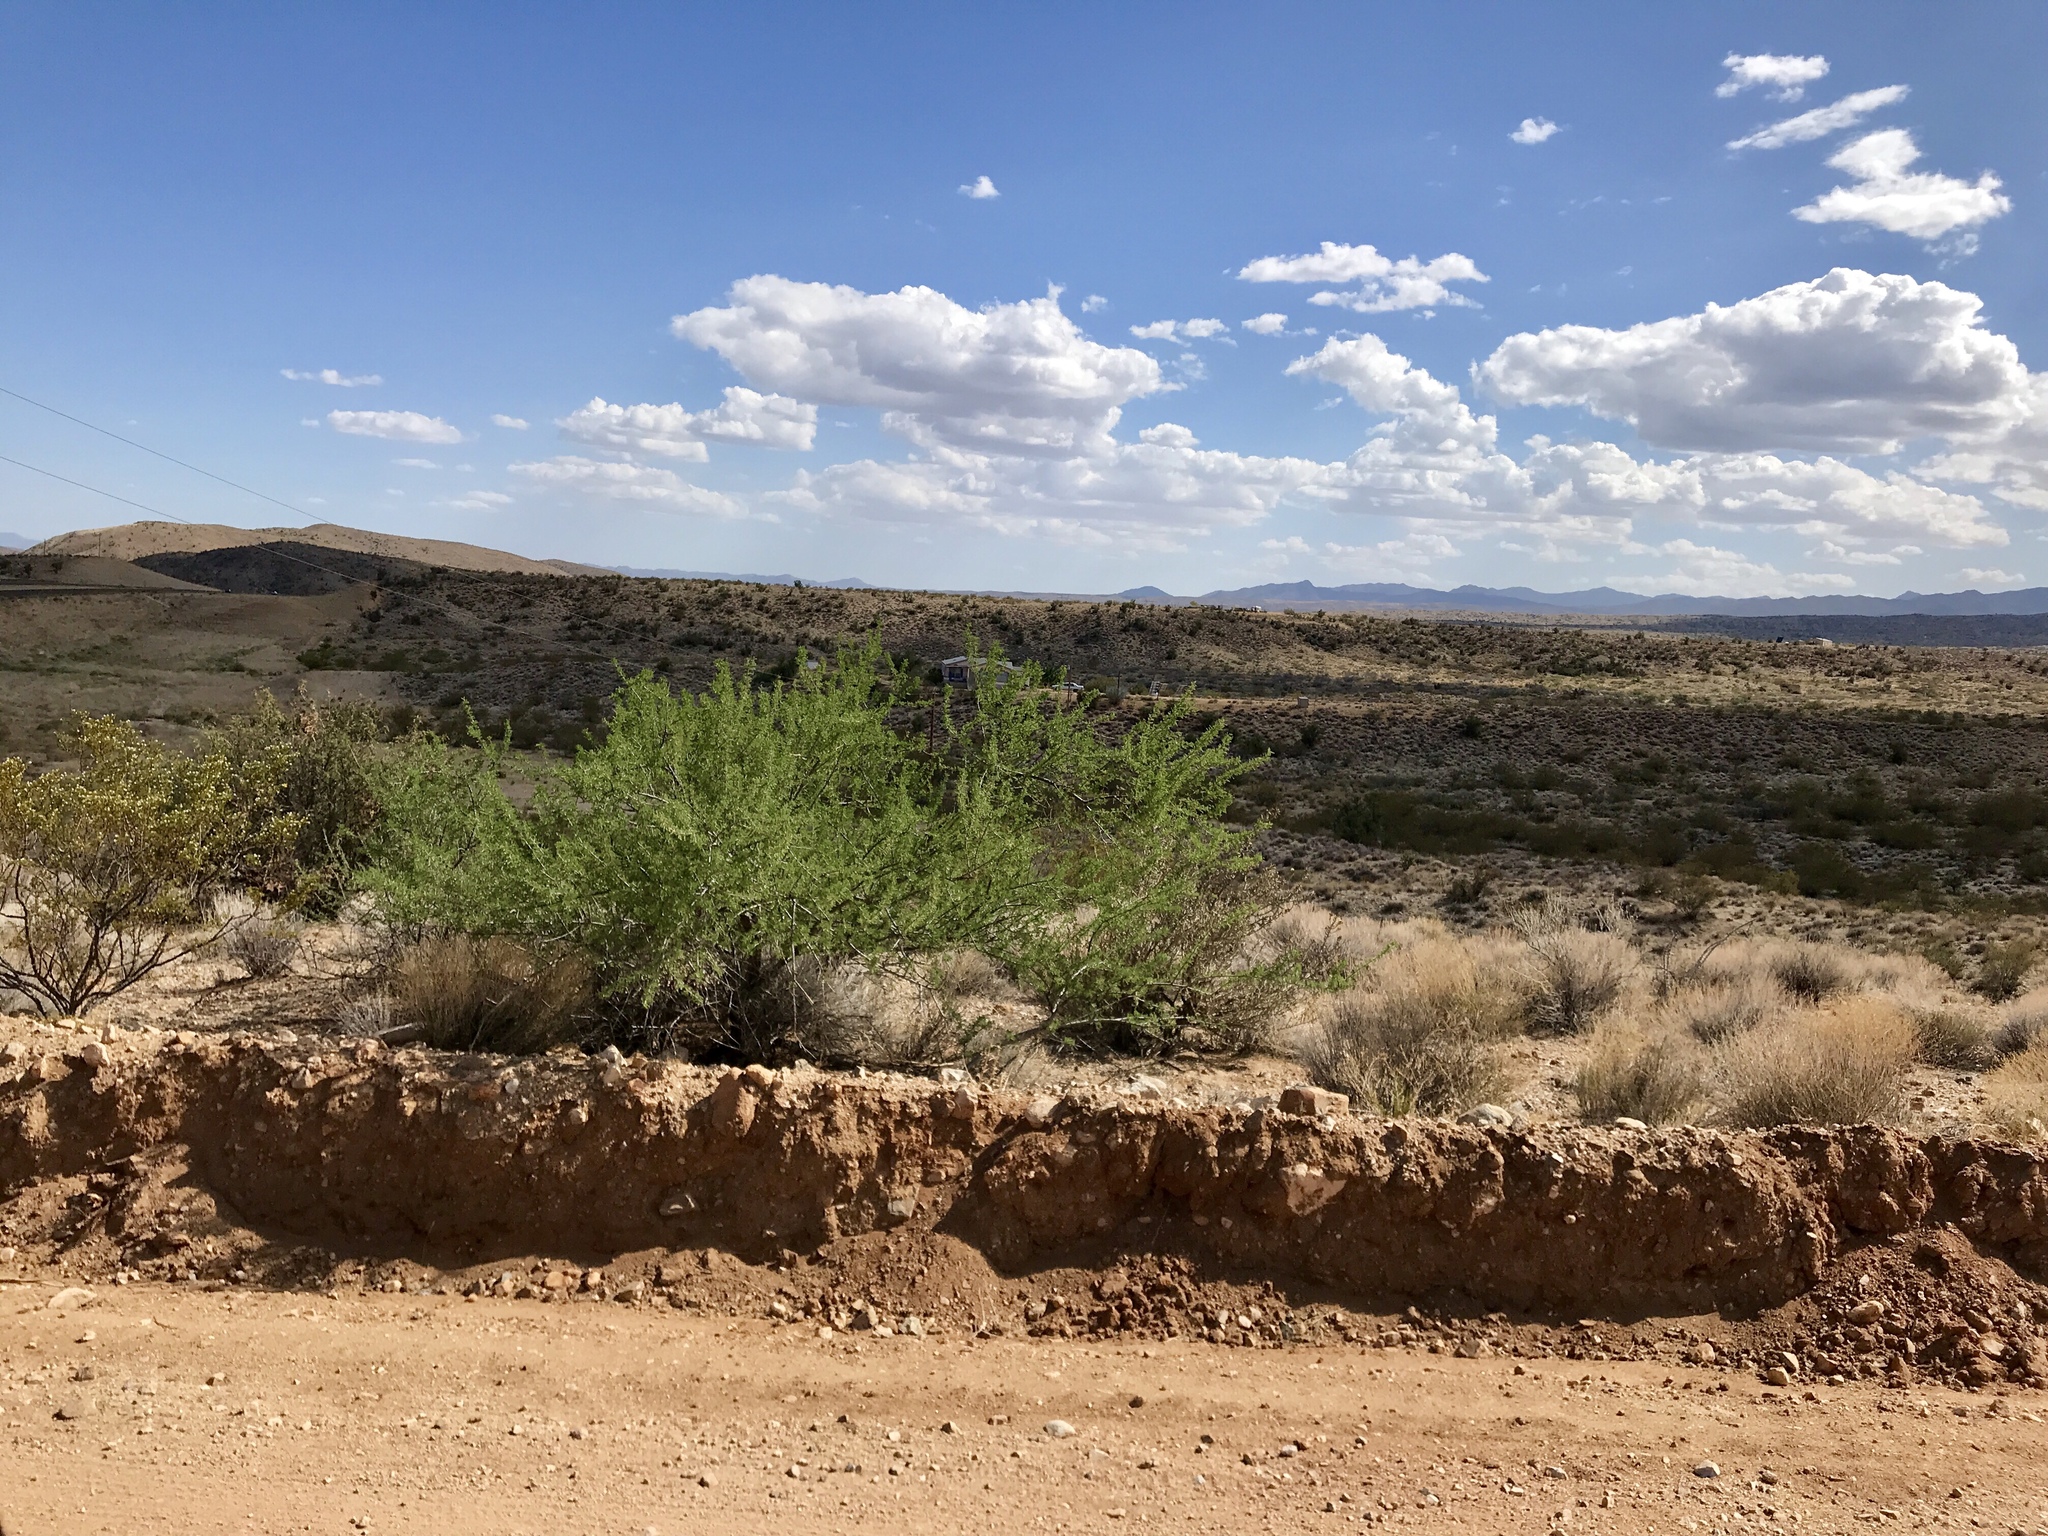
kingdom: Plantae
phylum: Tracheophyta
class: Magnoliopsida
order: Fabales
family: Fabaceae
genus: Senegalia
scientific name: Senegalia greggii
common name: Texas-mimosa
